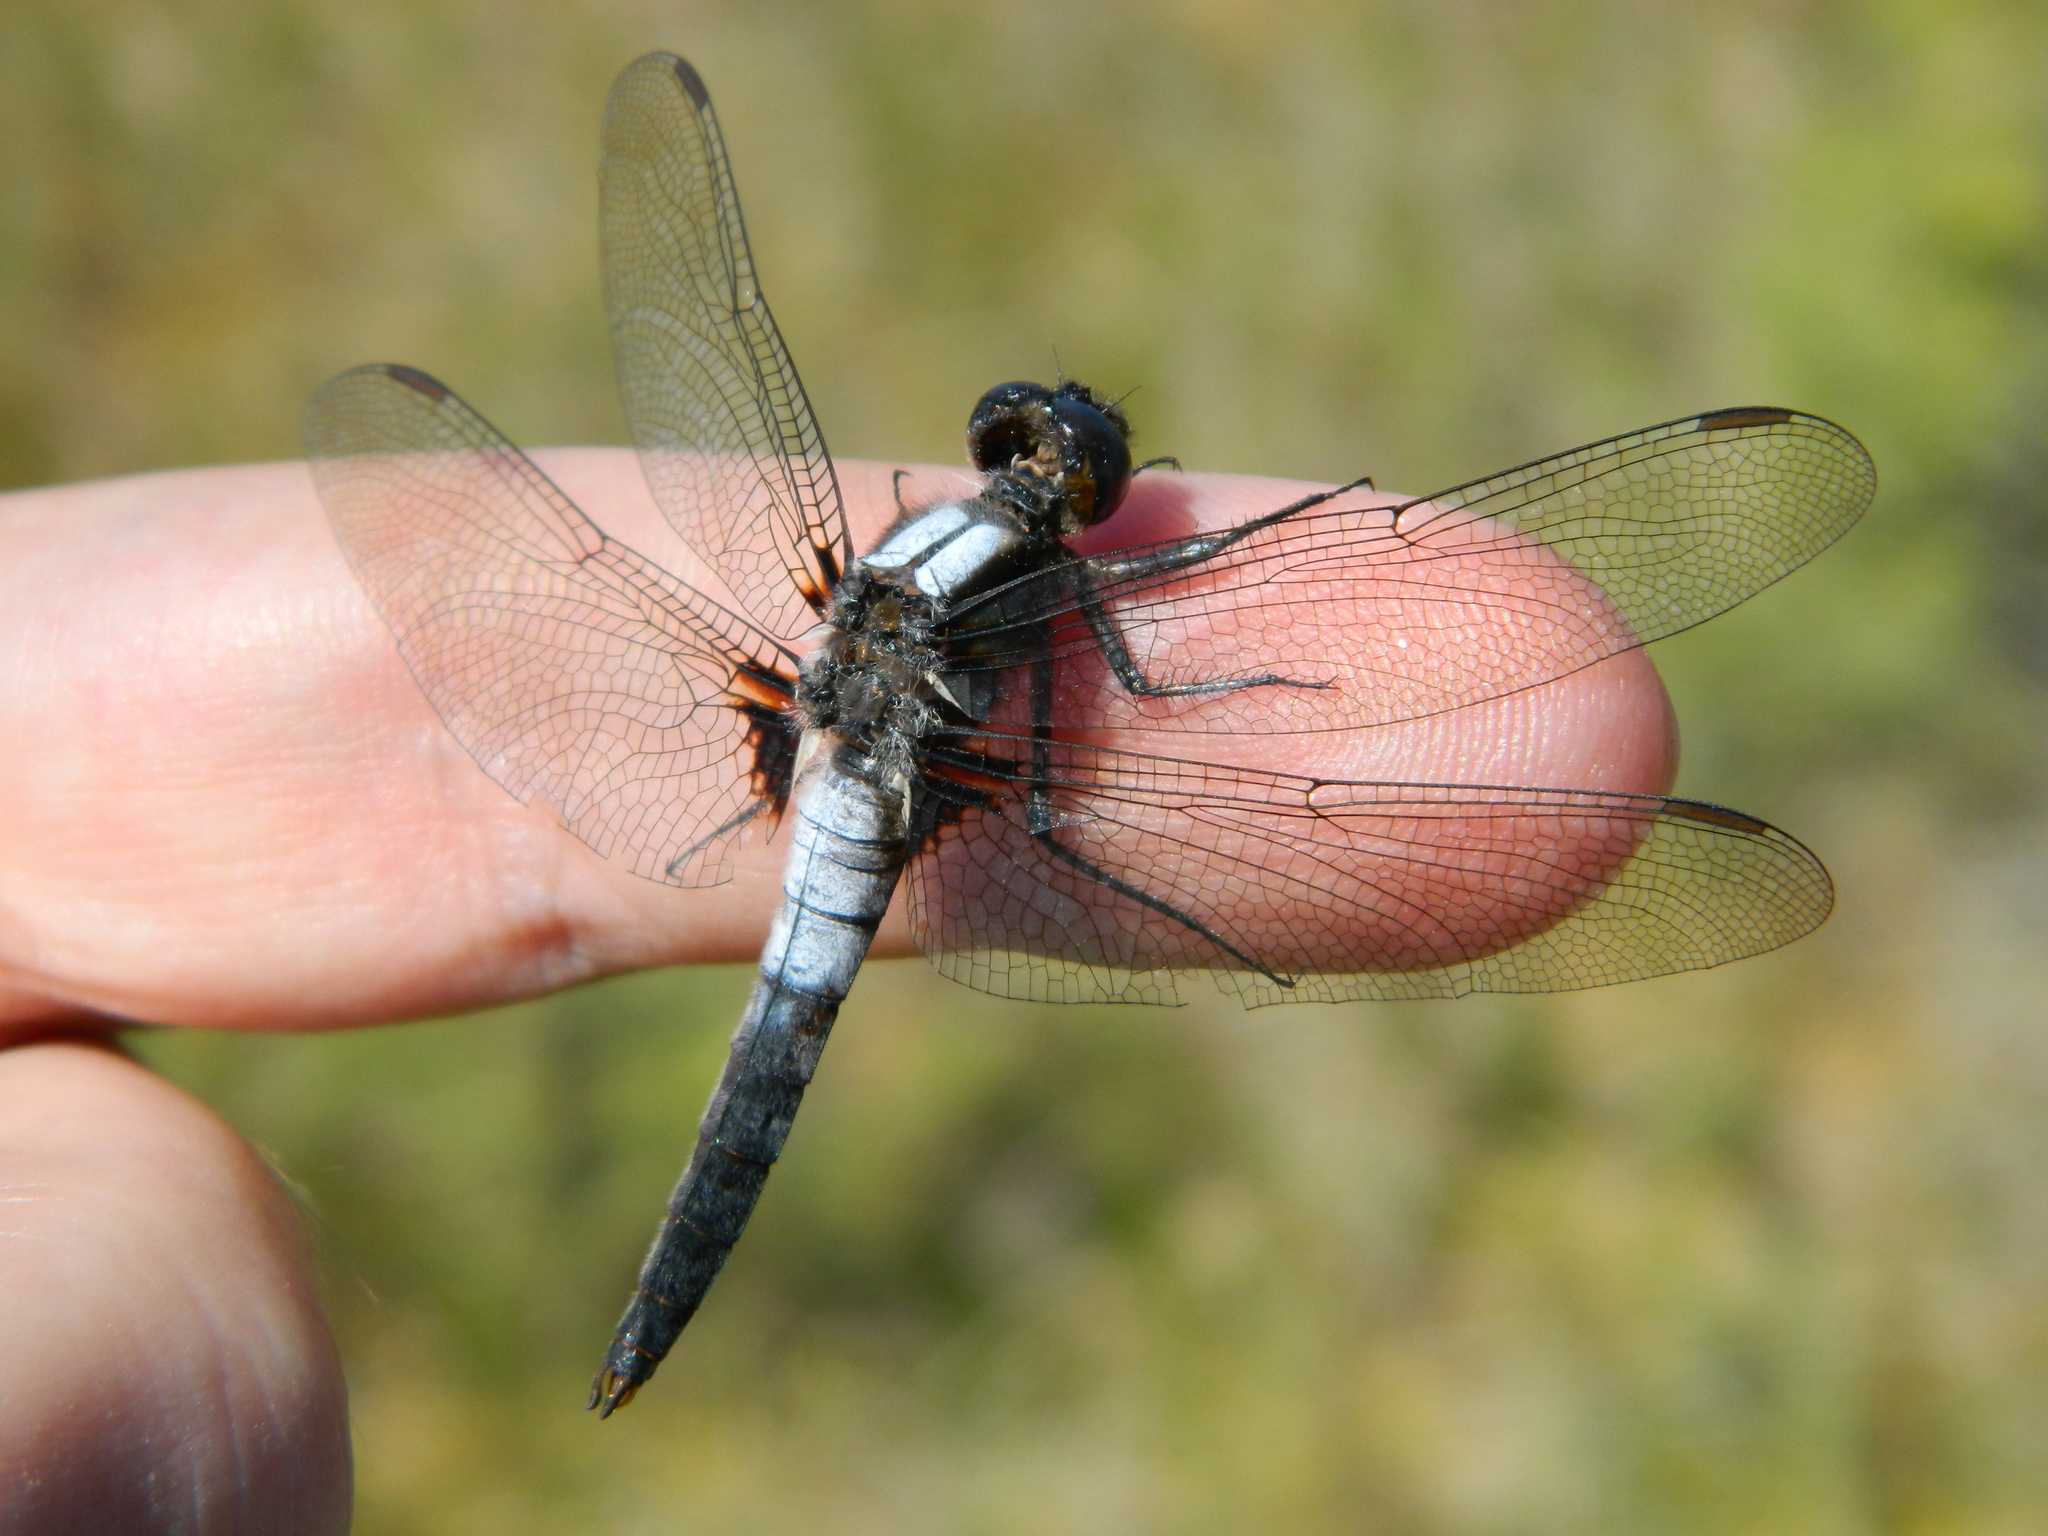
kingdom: Animalia
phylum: Arthropoda
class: Insecta
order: Odonata
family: Libellulidae
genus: Ladona
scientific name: Ladona julia
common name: Chalk-fronted corporal
